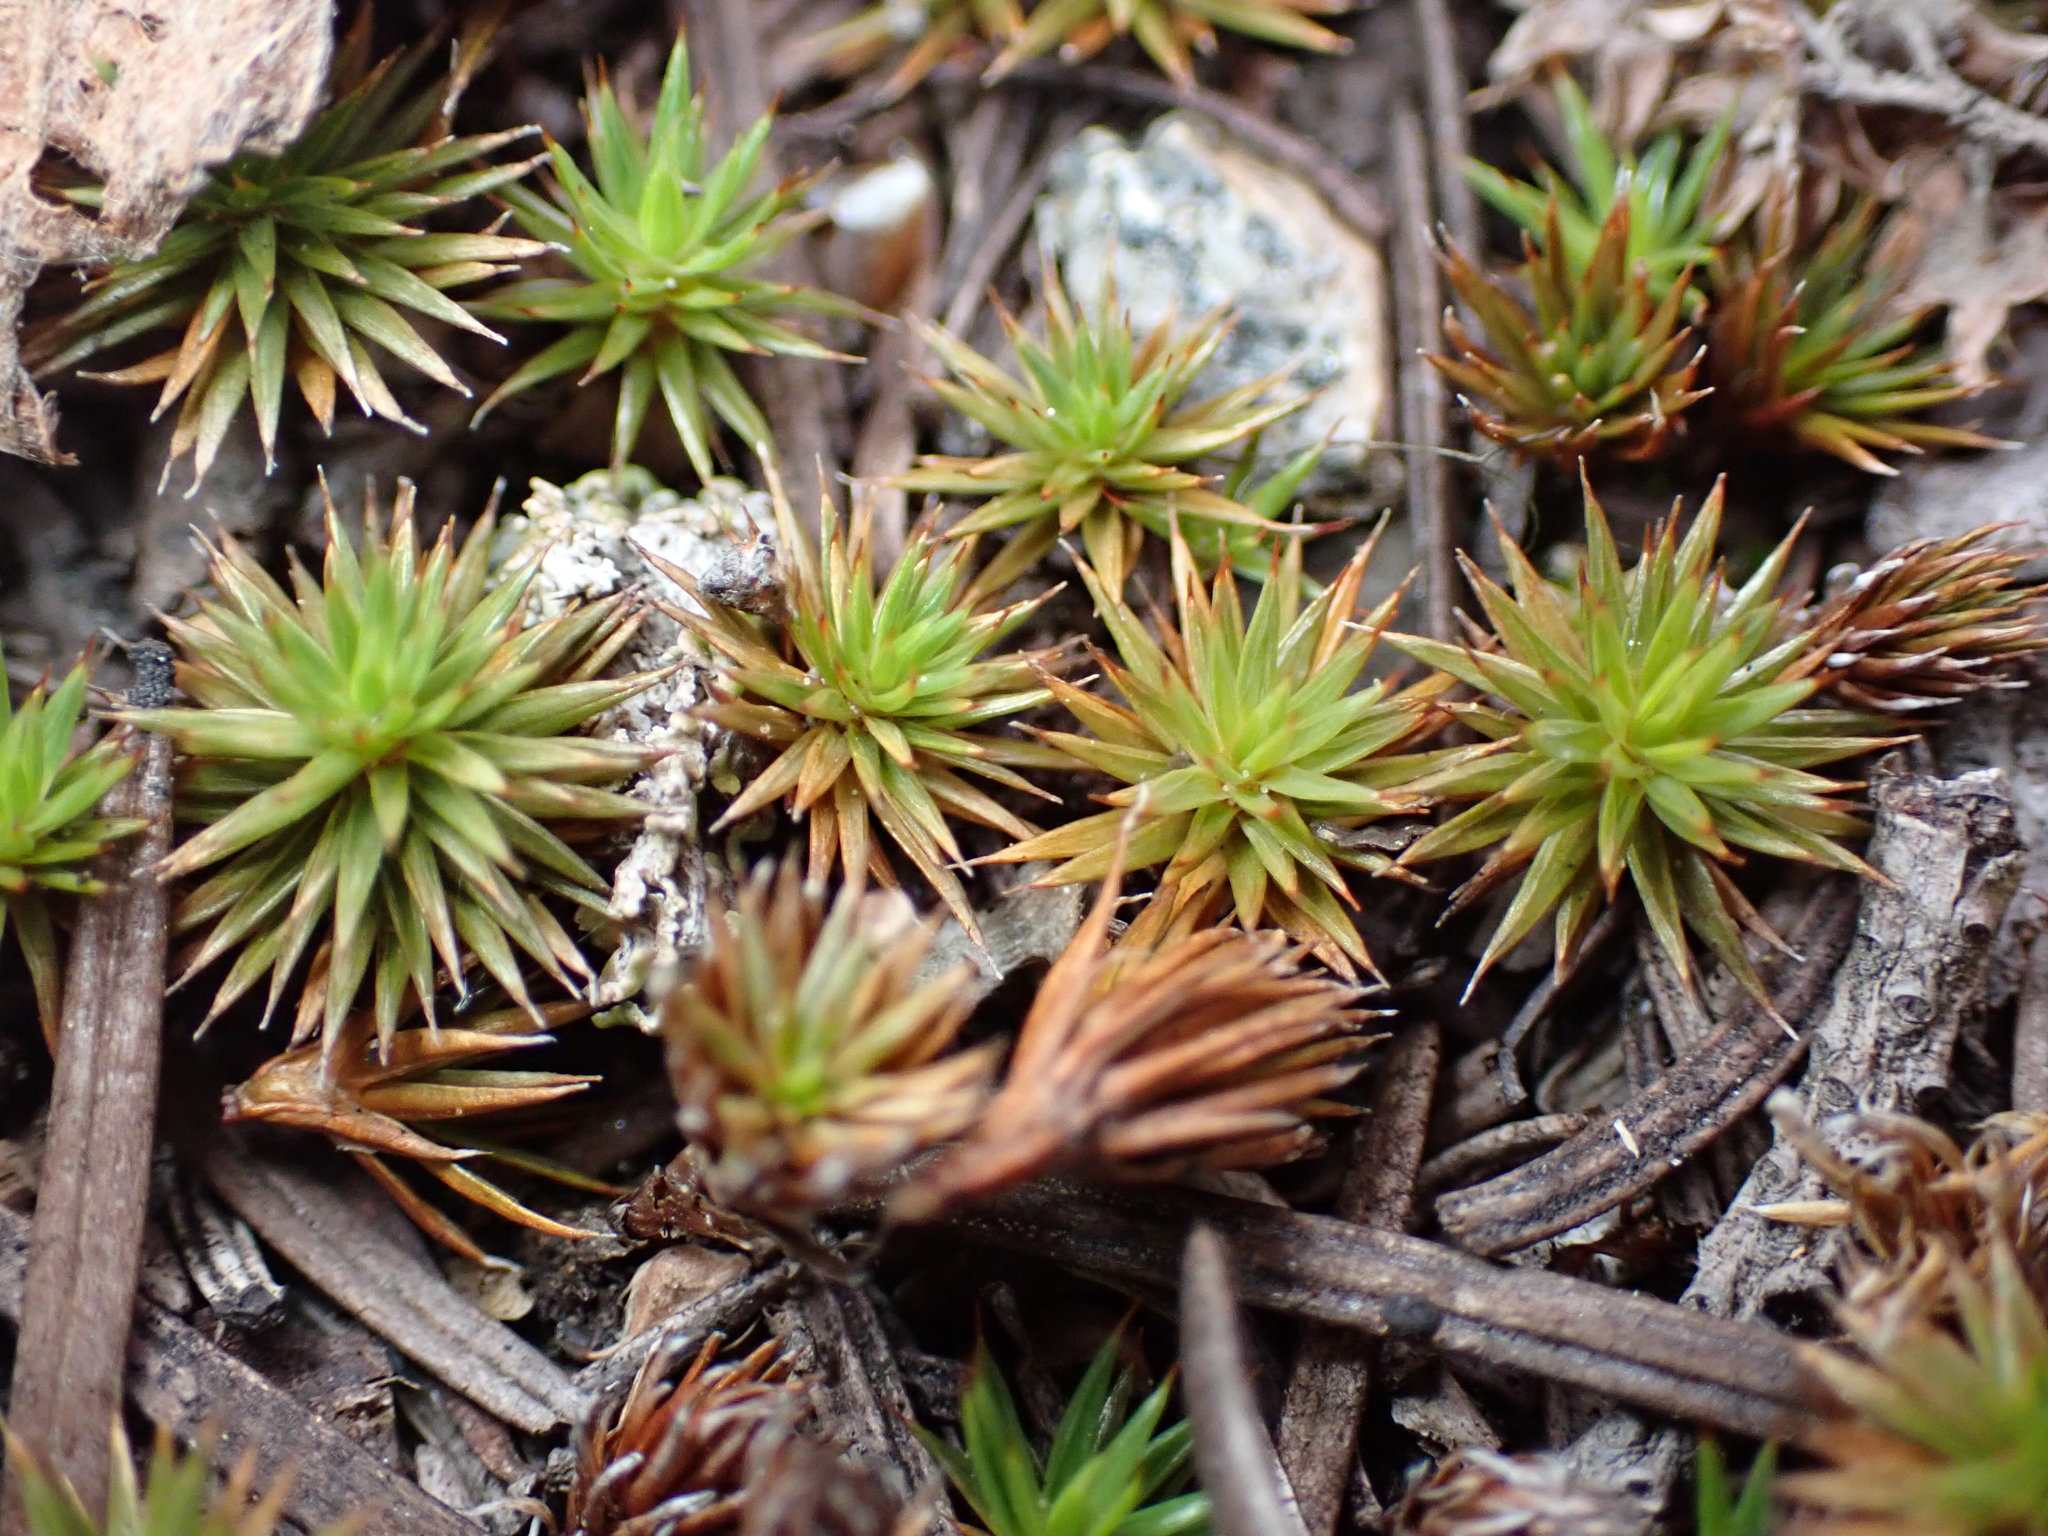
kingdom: Plantae
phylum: Bryophyta
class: Polytrichopsida
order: Polytrichales
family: Polytrichaceae
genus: Polytrichum
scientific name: Polytrichum juniperinum
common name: Juniper haircap moss
